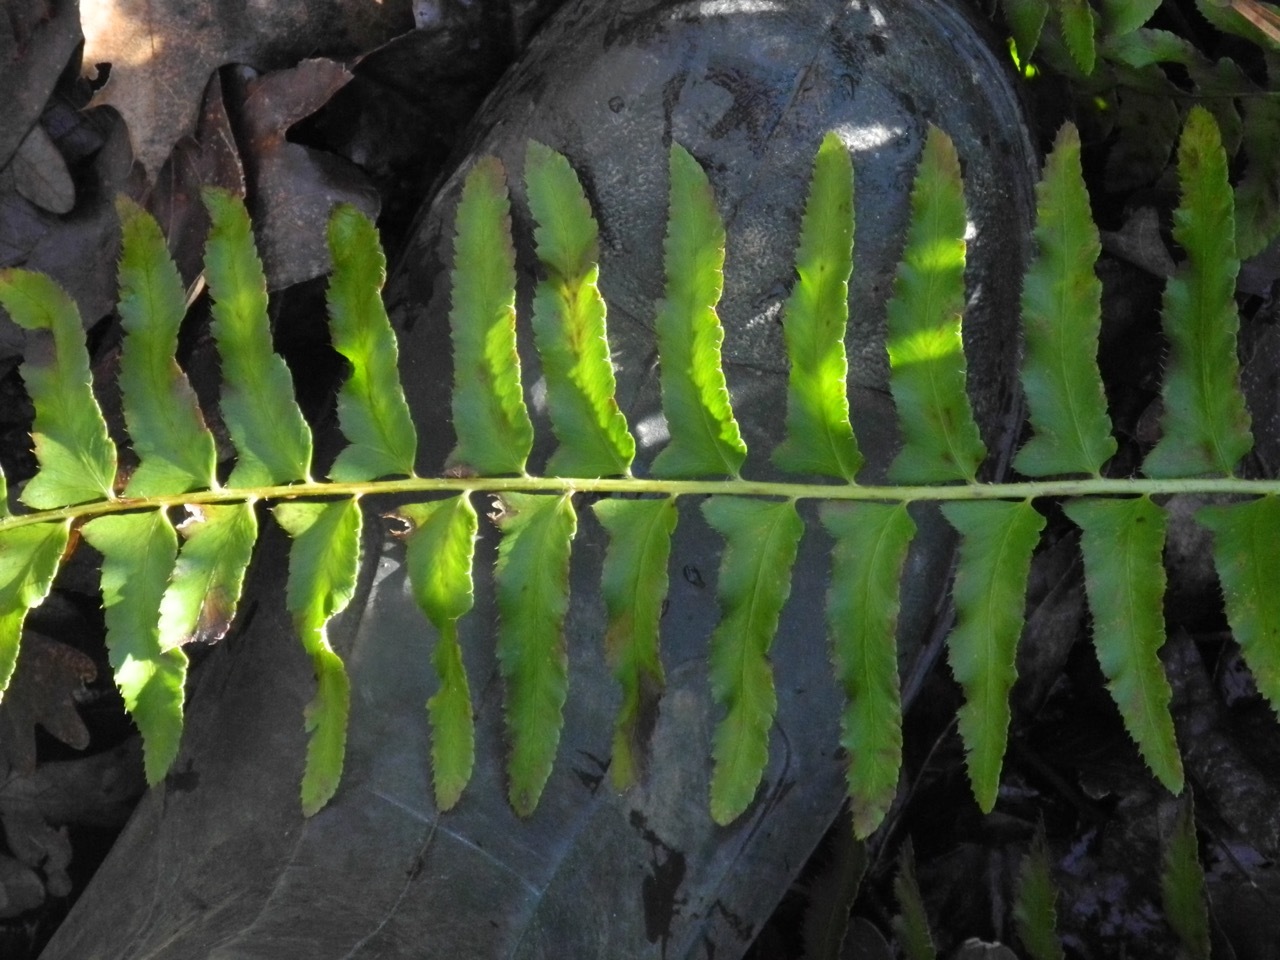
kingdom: Plantae
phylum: Tracheophyta
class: Polypodiopsida
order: Polypodiales
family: Dryopteridaceae
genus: Polystichum
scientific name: Polystichum acrostichoides
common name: Christmas fern
